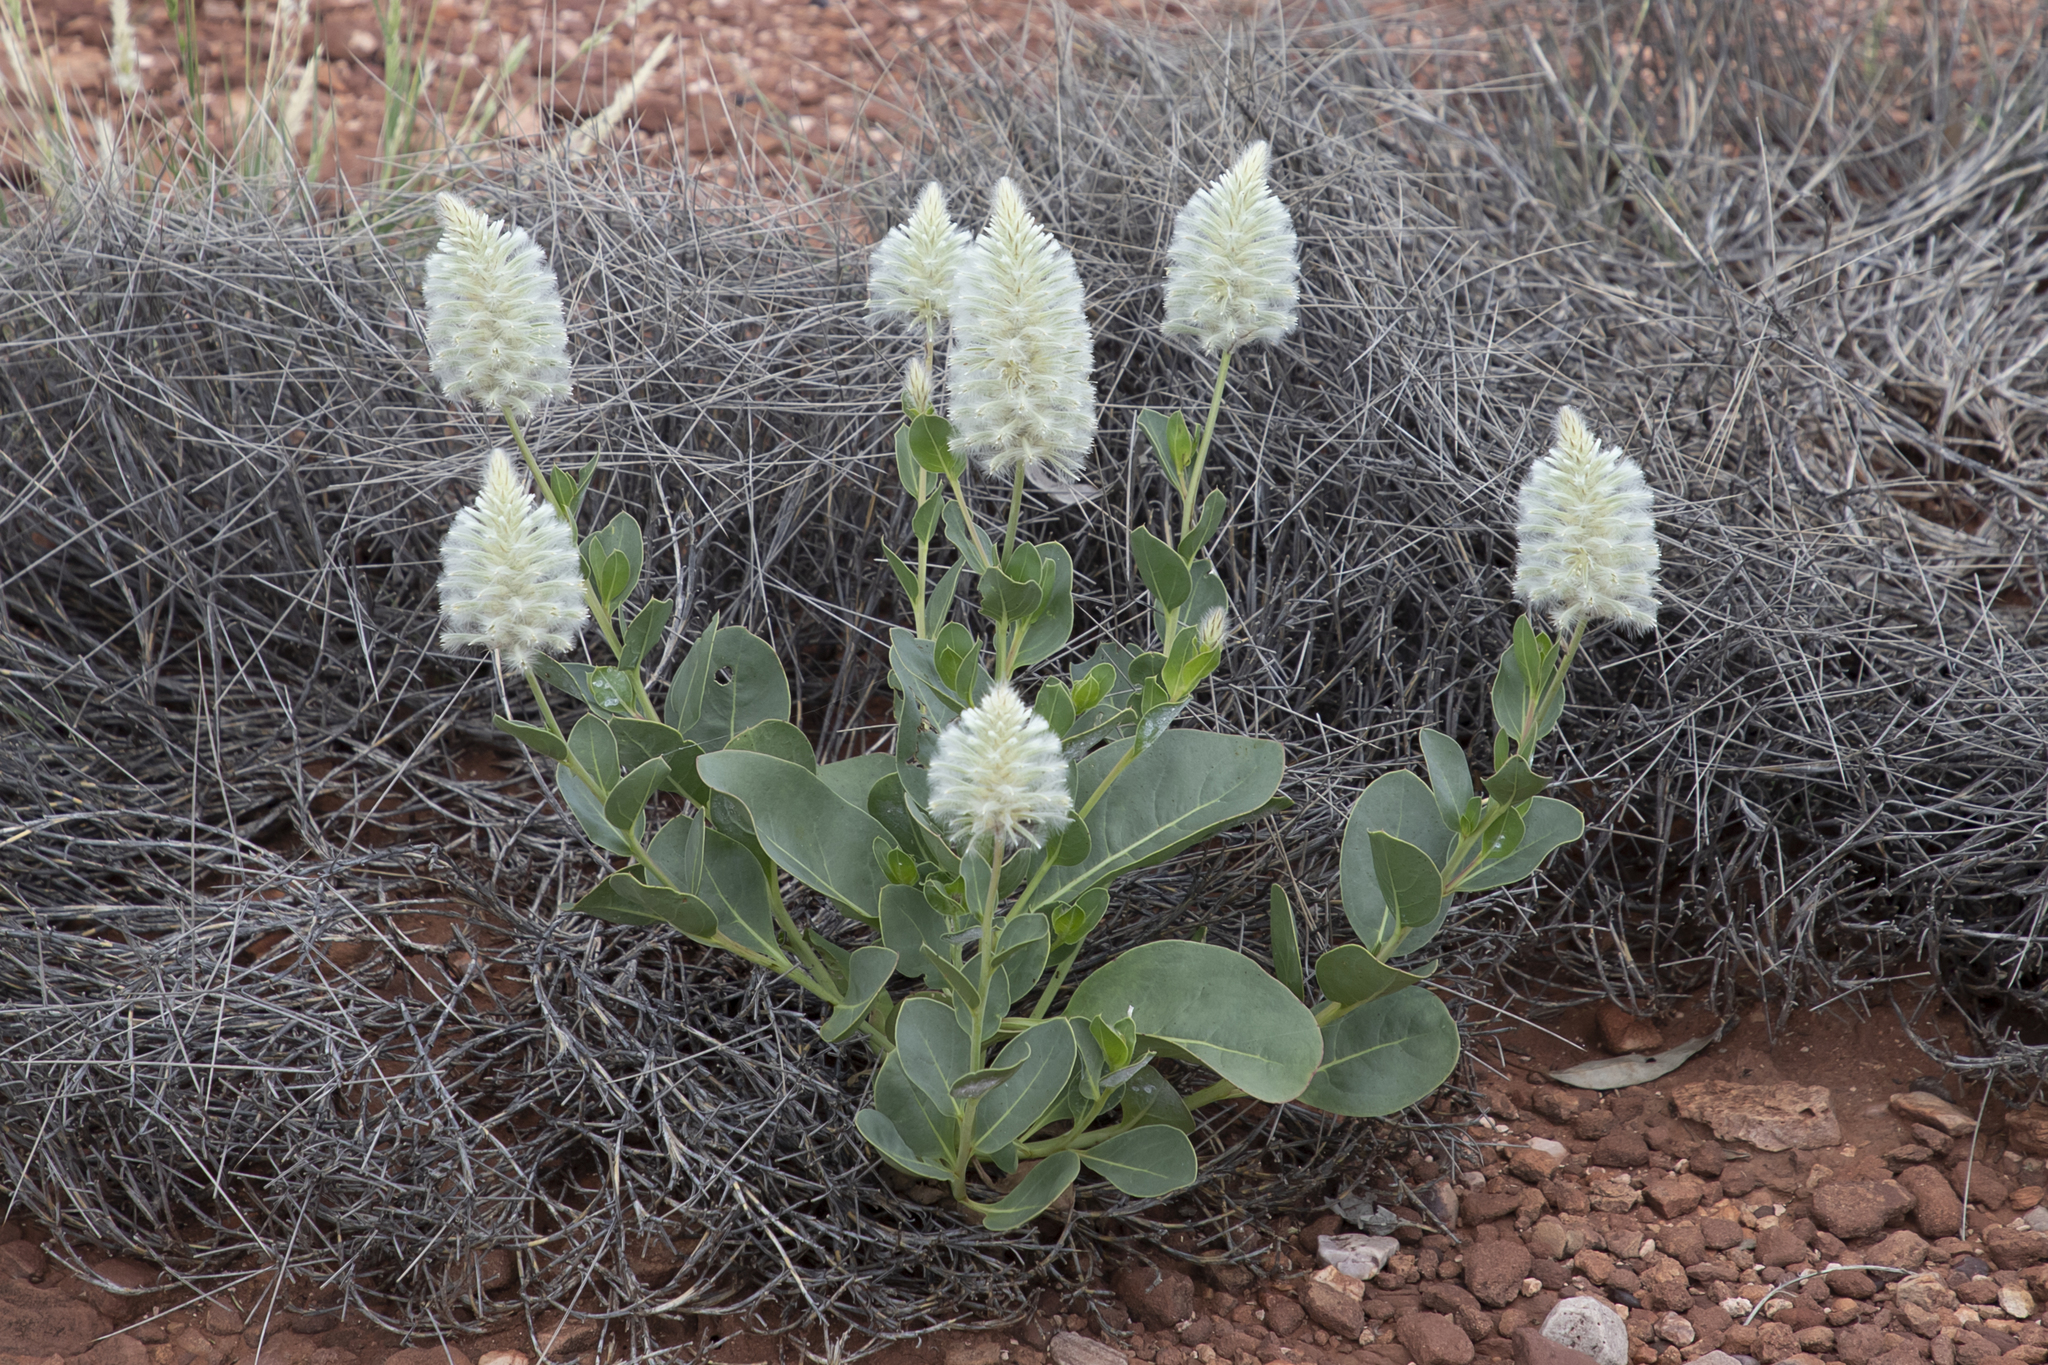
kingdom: Plantae
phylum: Tracheophyta
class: Magnoliopsida
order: Caryophyllales
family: Amaranthaceae
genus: Ptilotus
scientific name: Ptilotus nobilis
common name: Regal-foxtail
